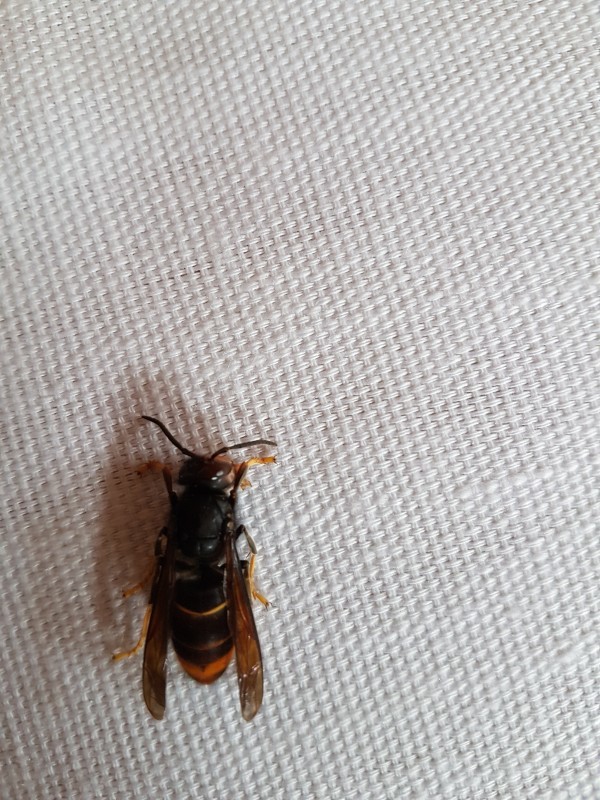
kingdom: Animalia
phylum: Arthropoda
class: Insecta
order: Hymenoptera
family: Vespidae
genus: Vespa
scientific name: Vespa velutina
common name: Asian hornet
